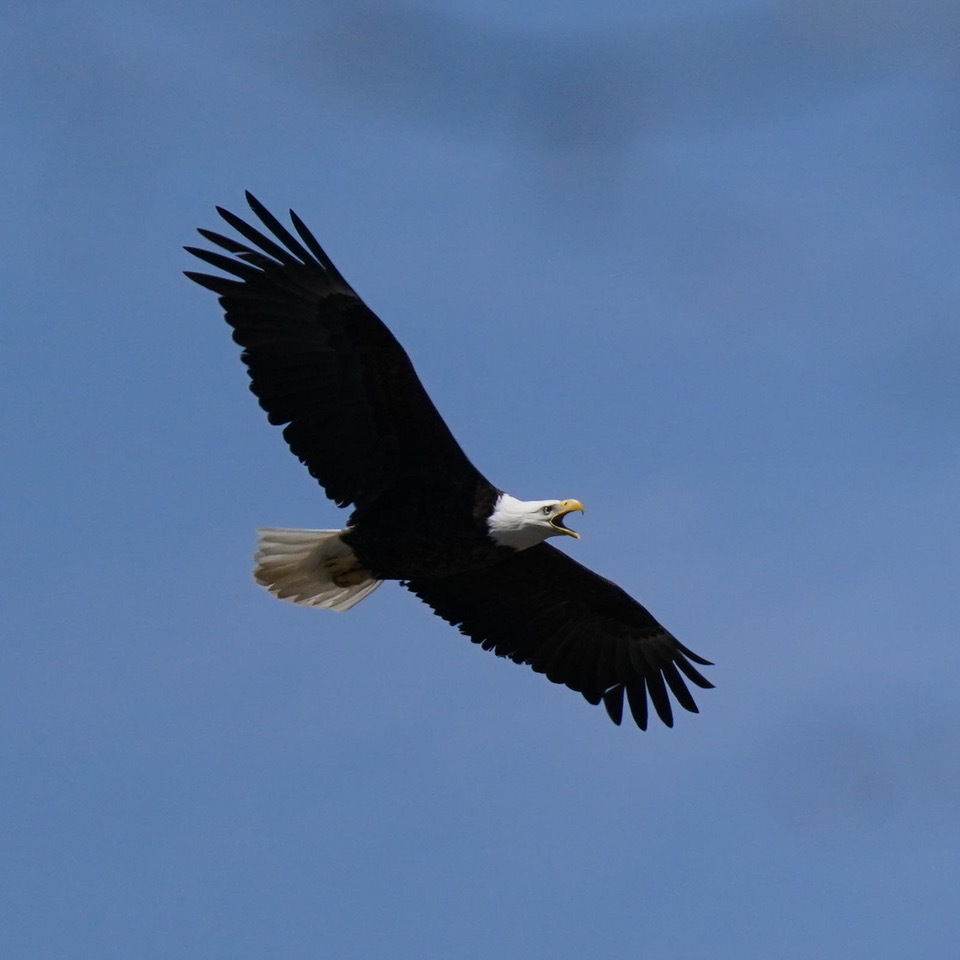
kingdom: Animalia
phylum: Chordata
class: Aves
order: Accipitriformes
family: Accipitridae
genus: Haliaeetus
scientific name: Haliaeetus leucocephalus
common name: Bald eagle
